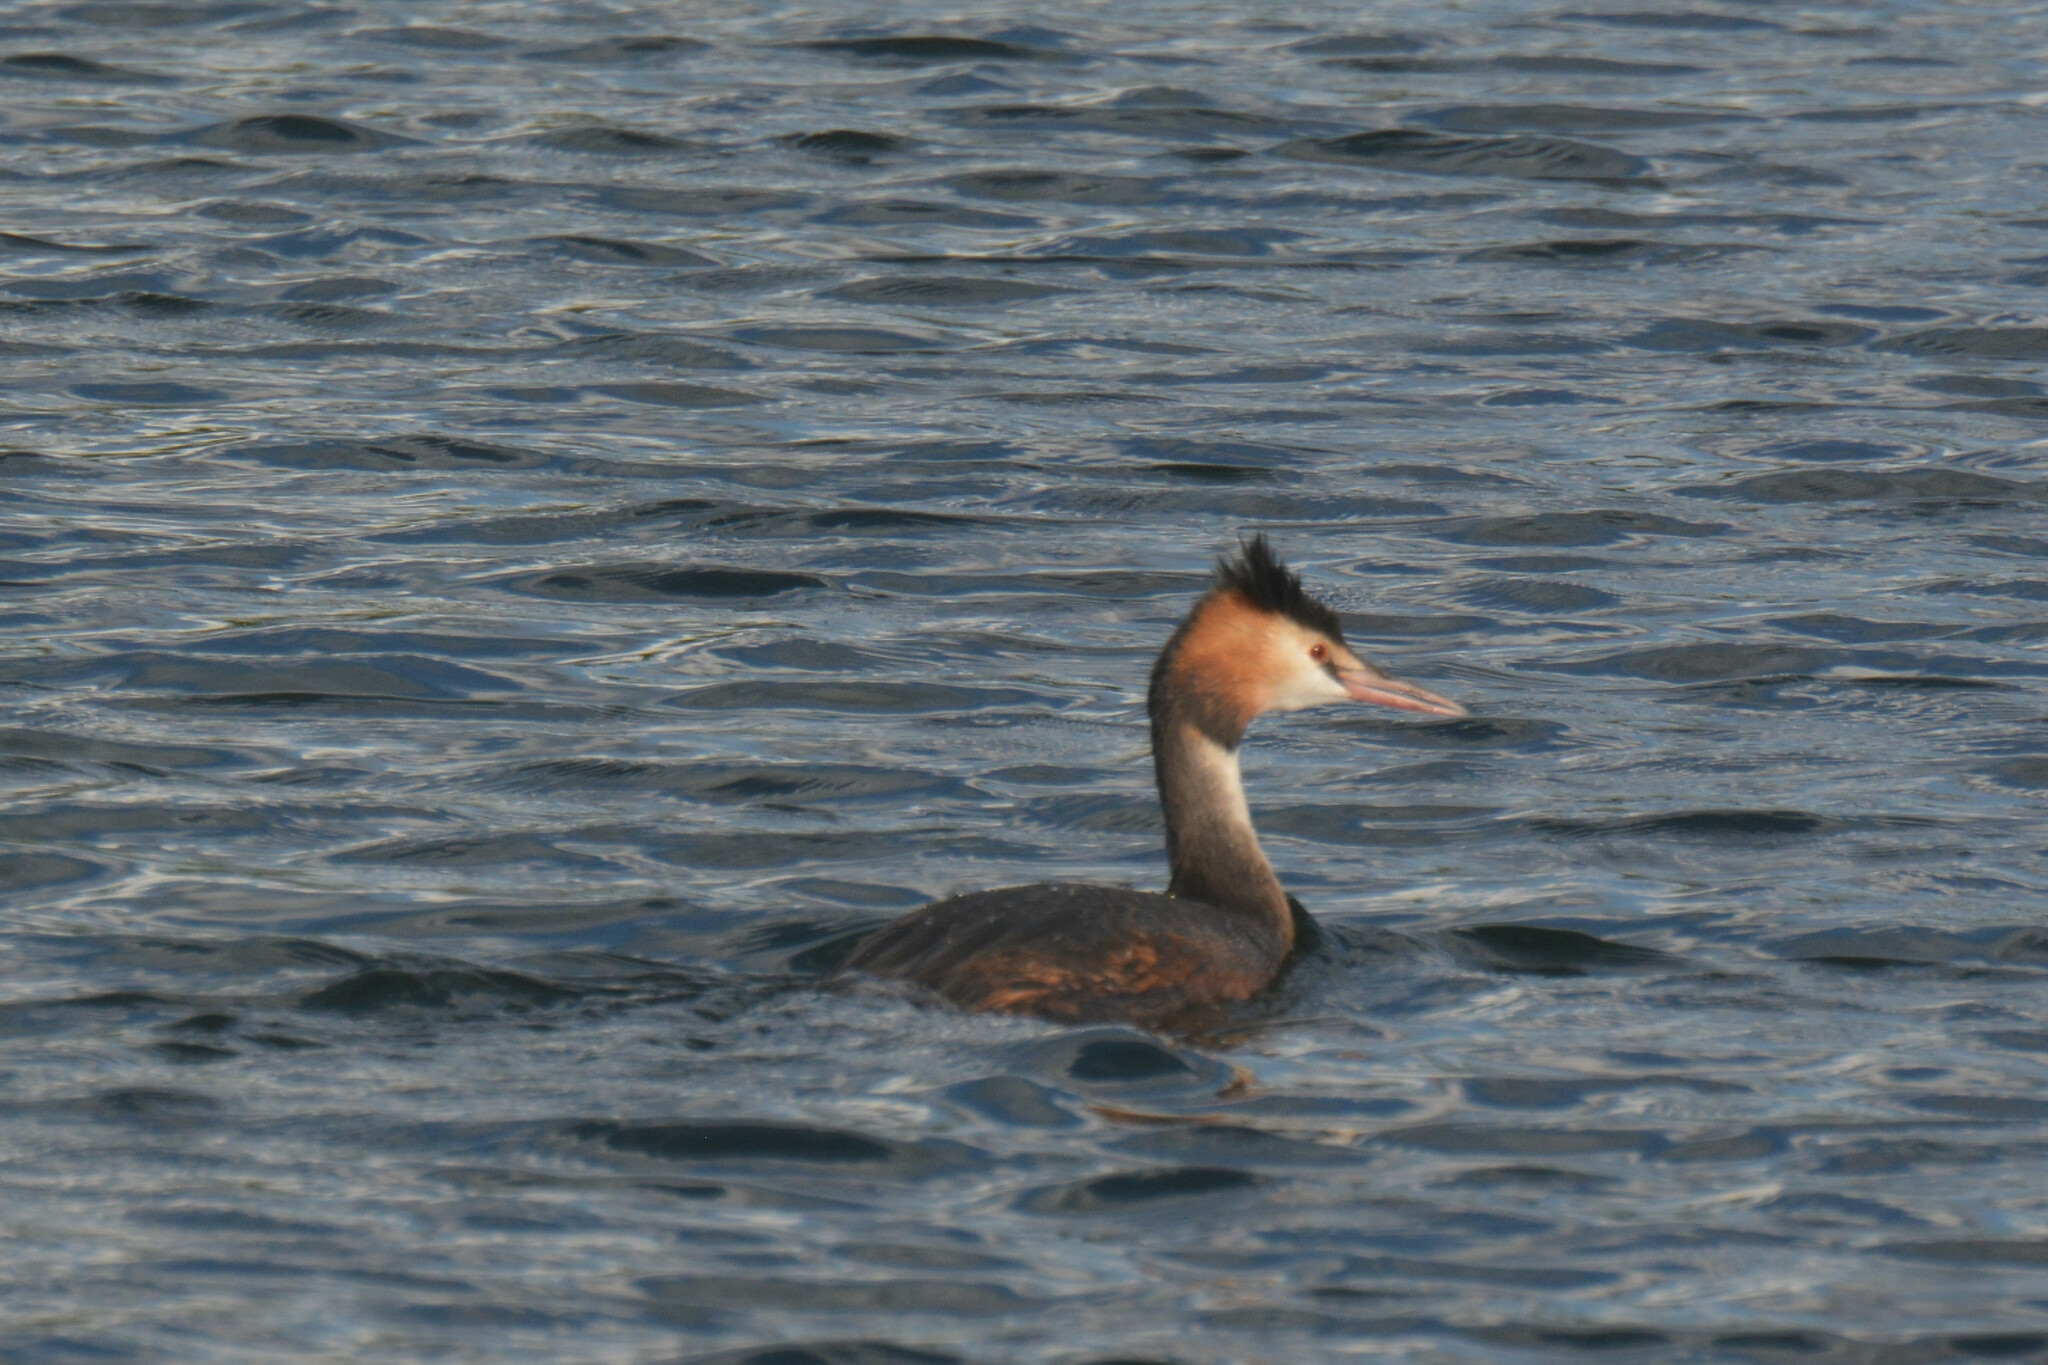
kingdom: Animalia
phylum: Chordata
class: Aves
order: Podicipediformes
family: Podicipedidae
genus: Podiceps
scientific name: Podiceps cristatus
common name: Great crested grebe
